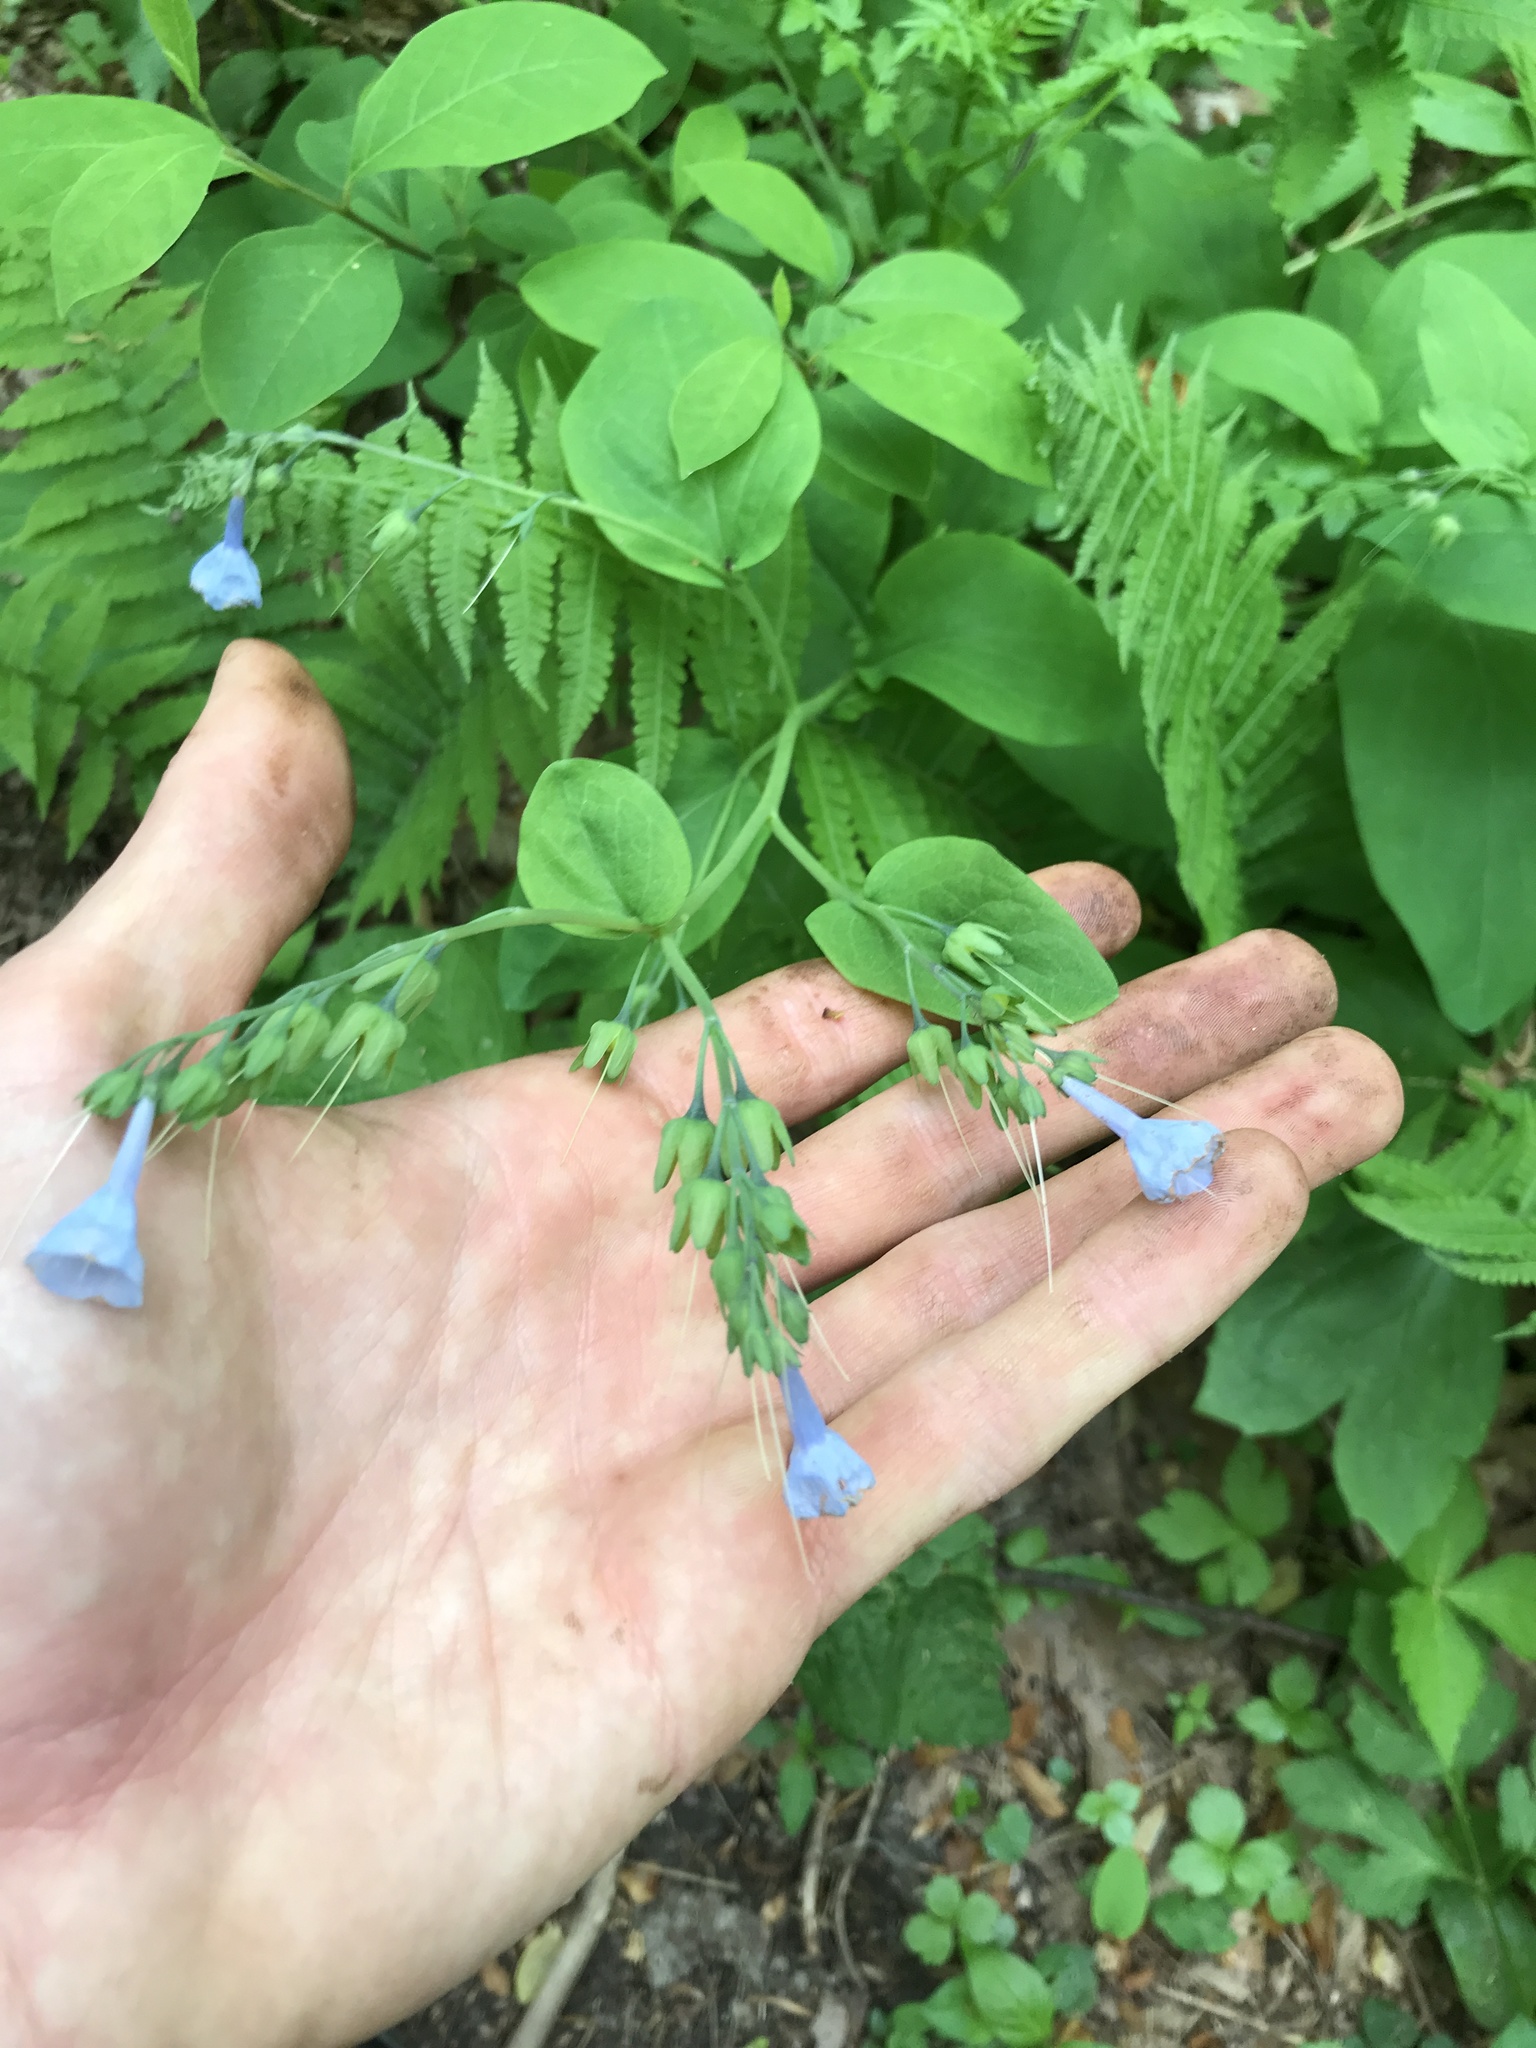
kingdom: Plantae
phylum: Tracheophyta
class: Magnoliopsida
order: Boraginales
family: Boraginaceae
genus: Mertensia
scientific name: Mertensia virginica
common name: Virginia bluebells
